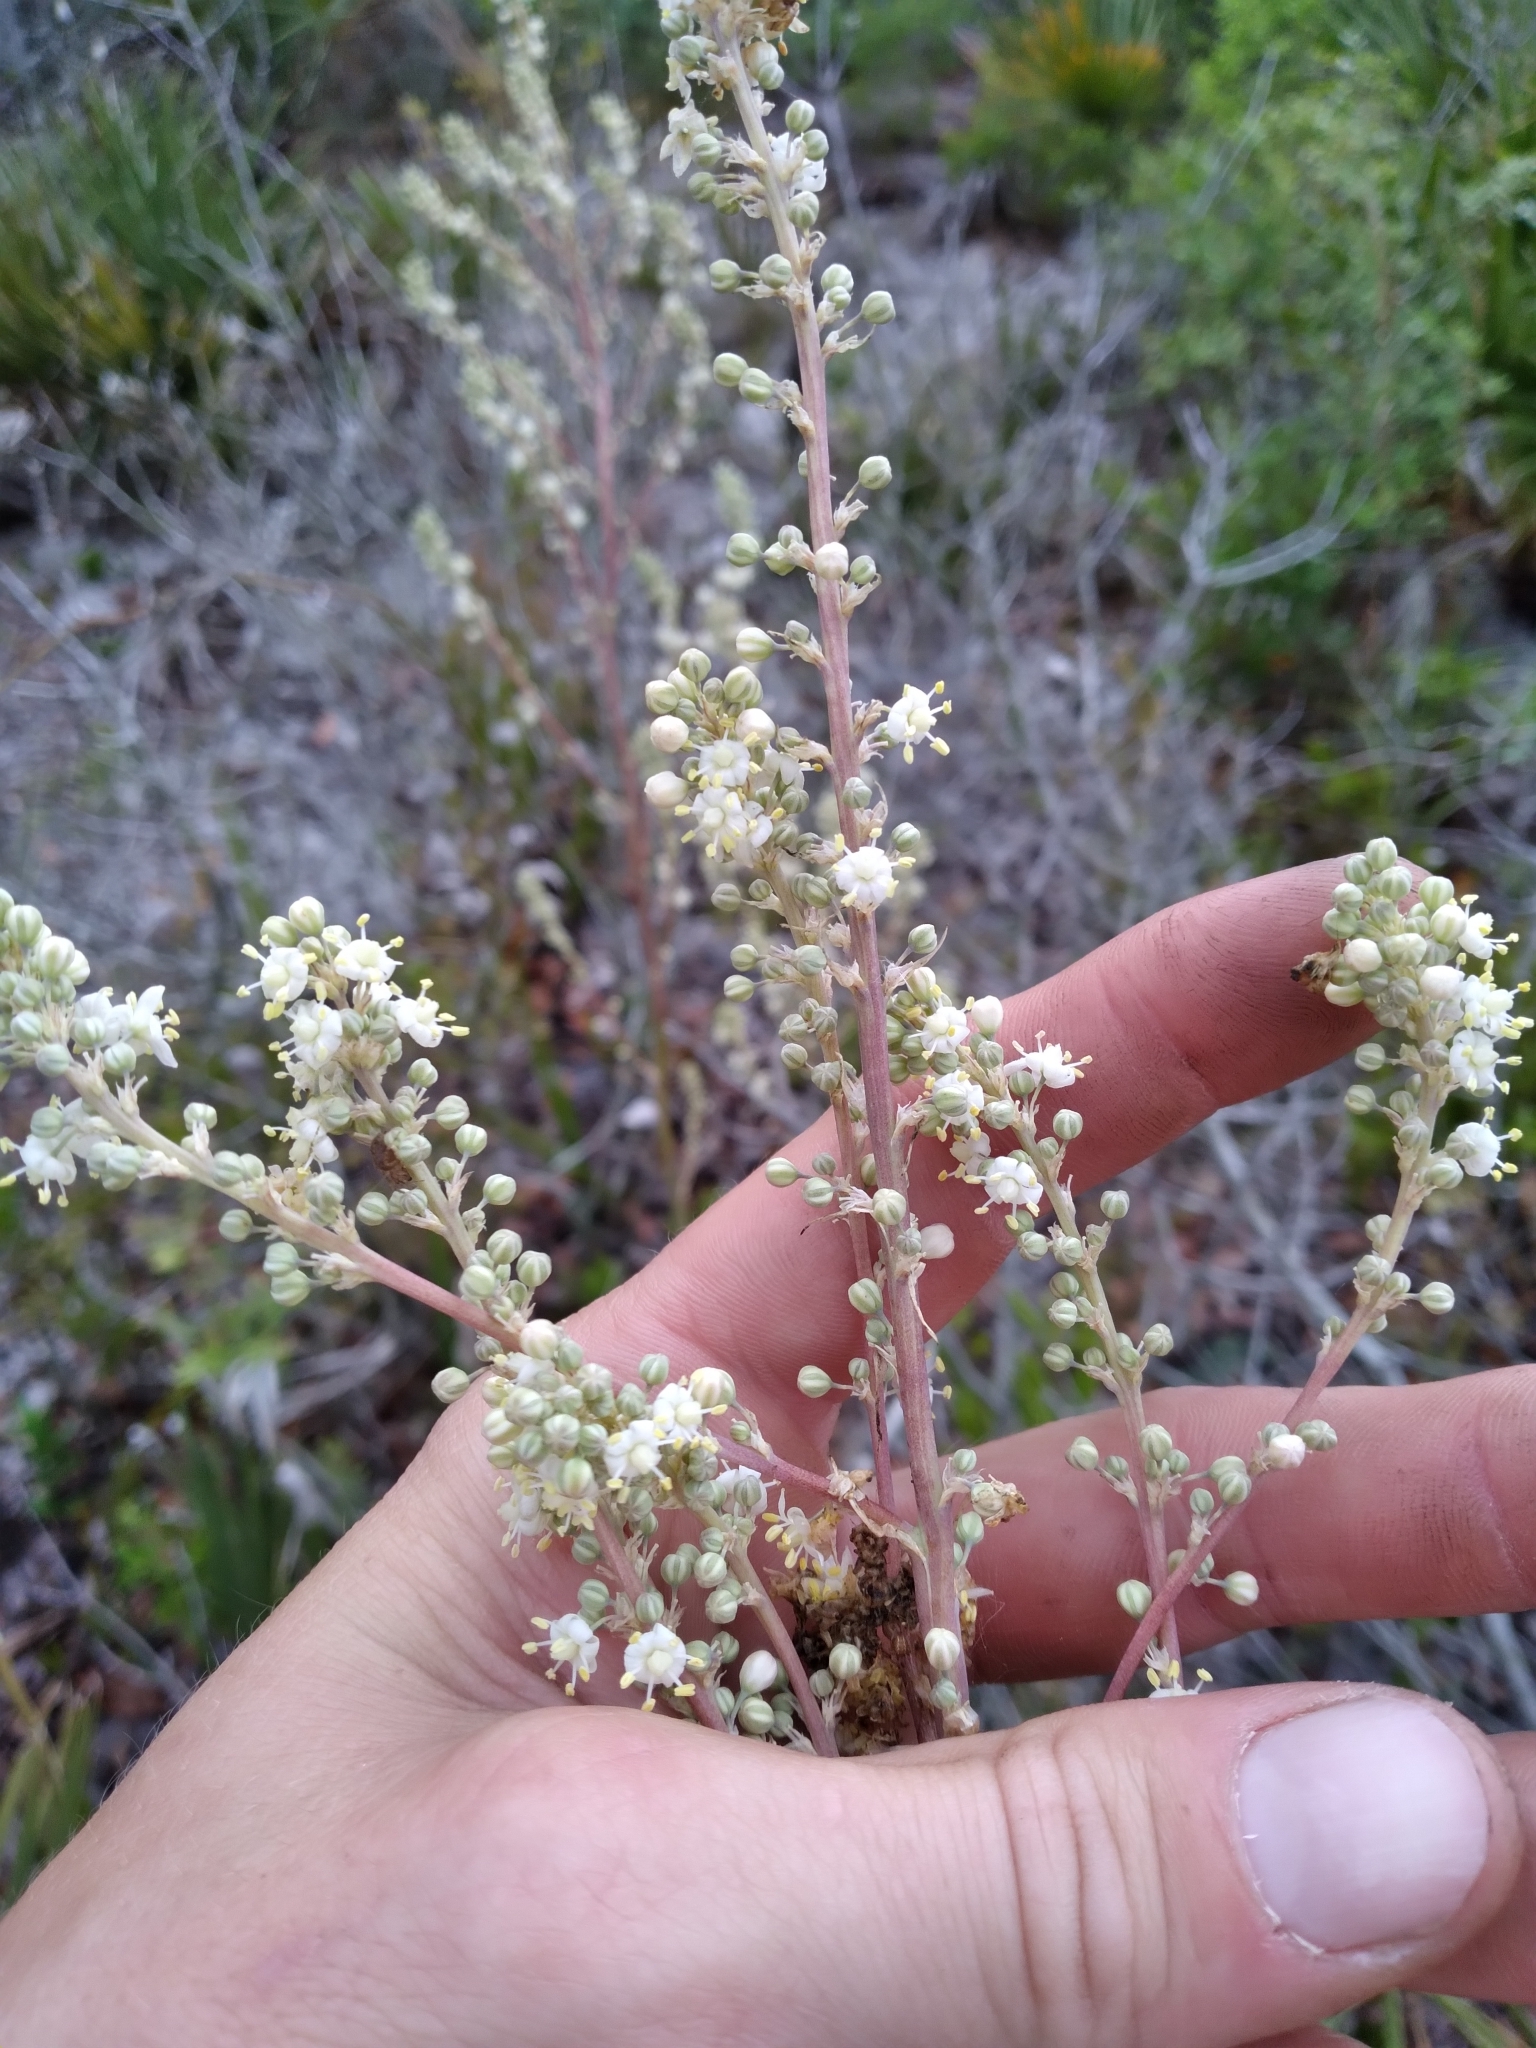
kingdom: Plantae
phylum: Tracheophyta
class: Liliopsida
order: Asparagales
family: Asparagaceae
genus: Nolina
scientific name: Nolina brittoniana
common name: Britton's bear-grass
